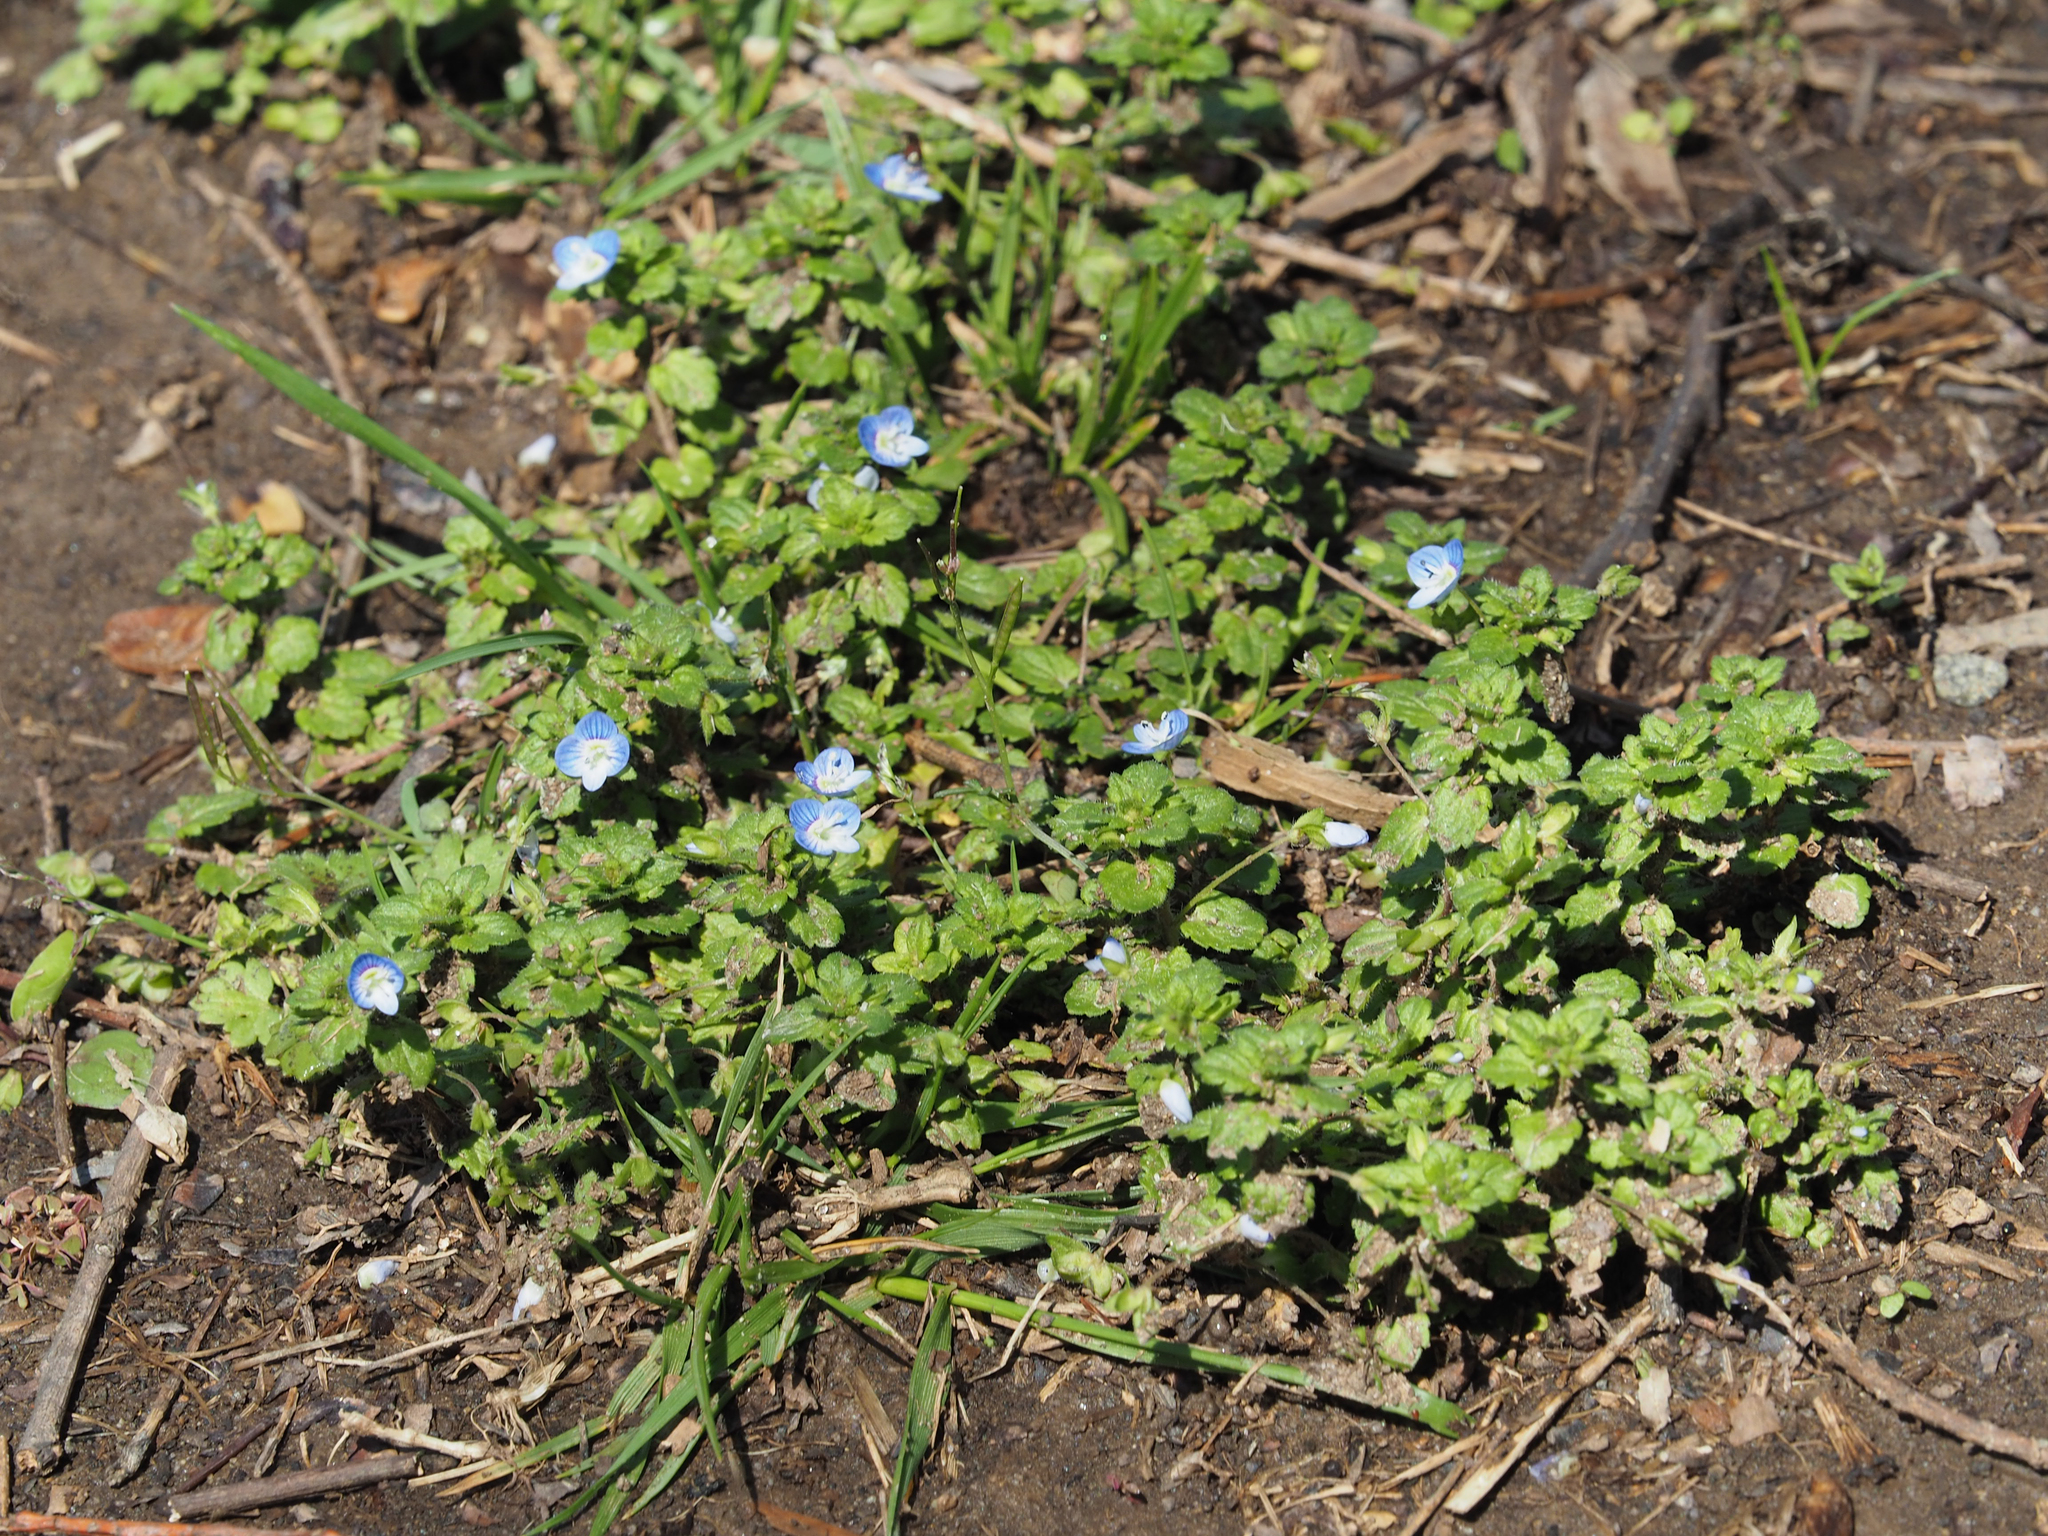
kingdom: Plantae
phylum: Tracheophyta
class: Magnoliopsida
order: Lamiales
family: Plantaginaceae
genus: Veronica
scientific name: Veronica persica
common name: Common field-speedwell
